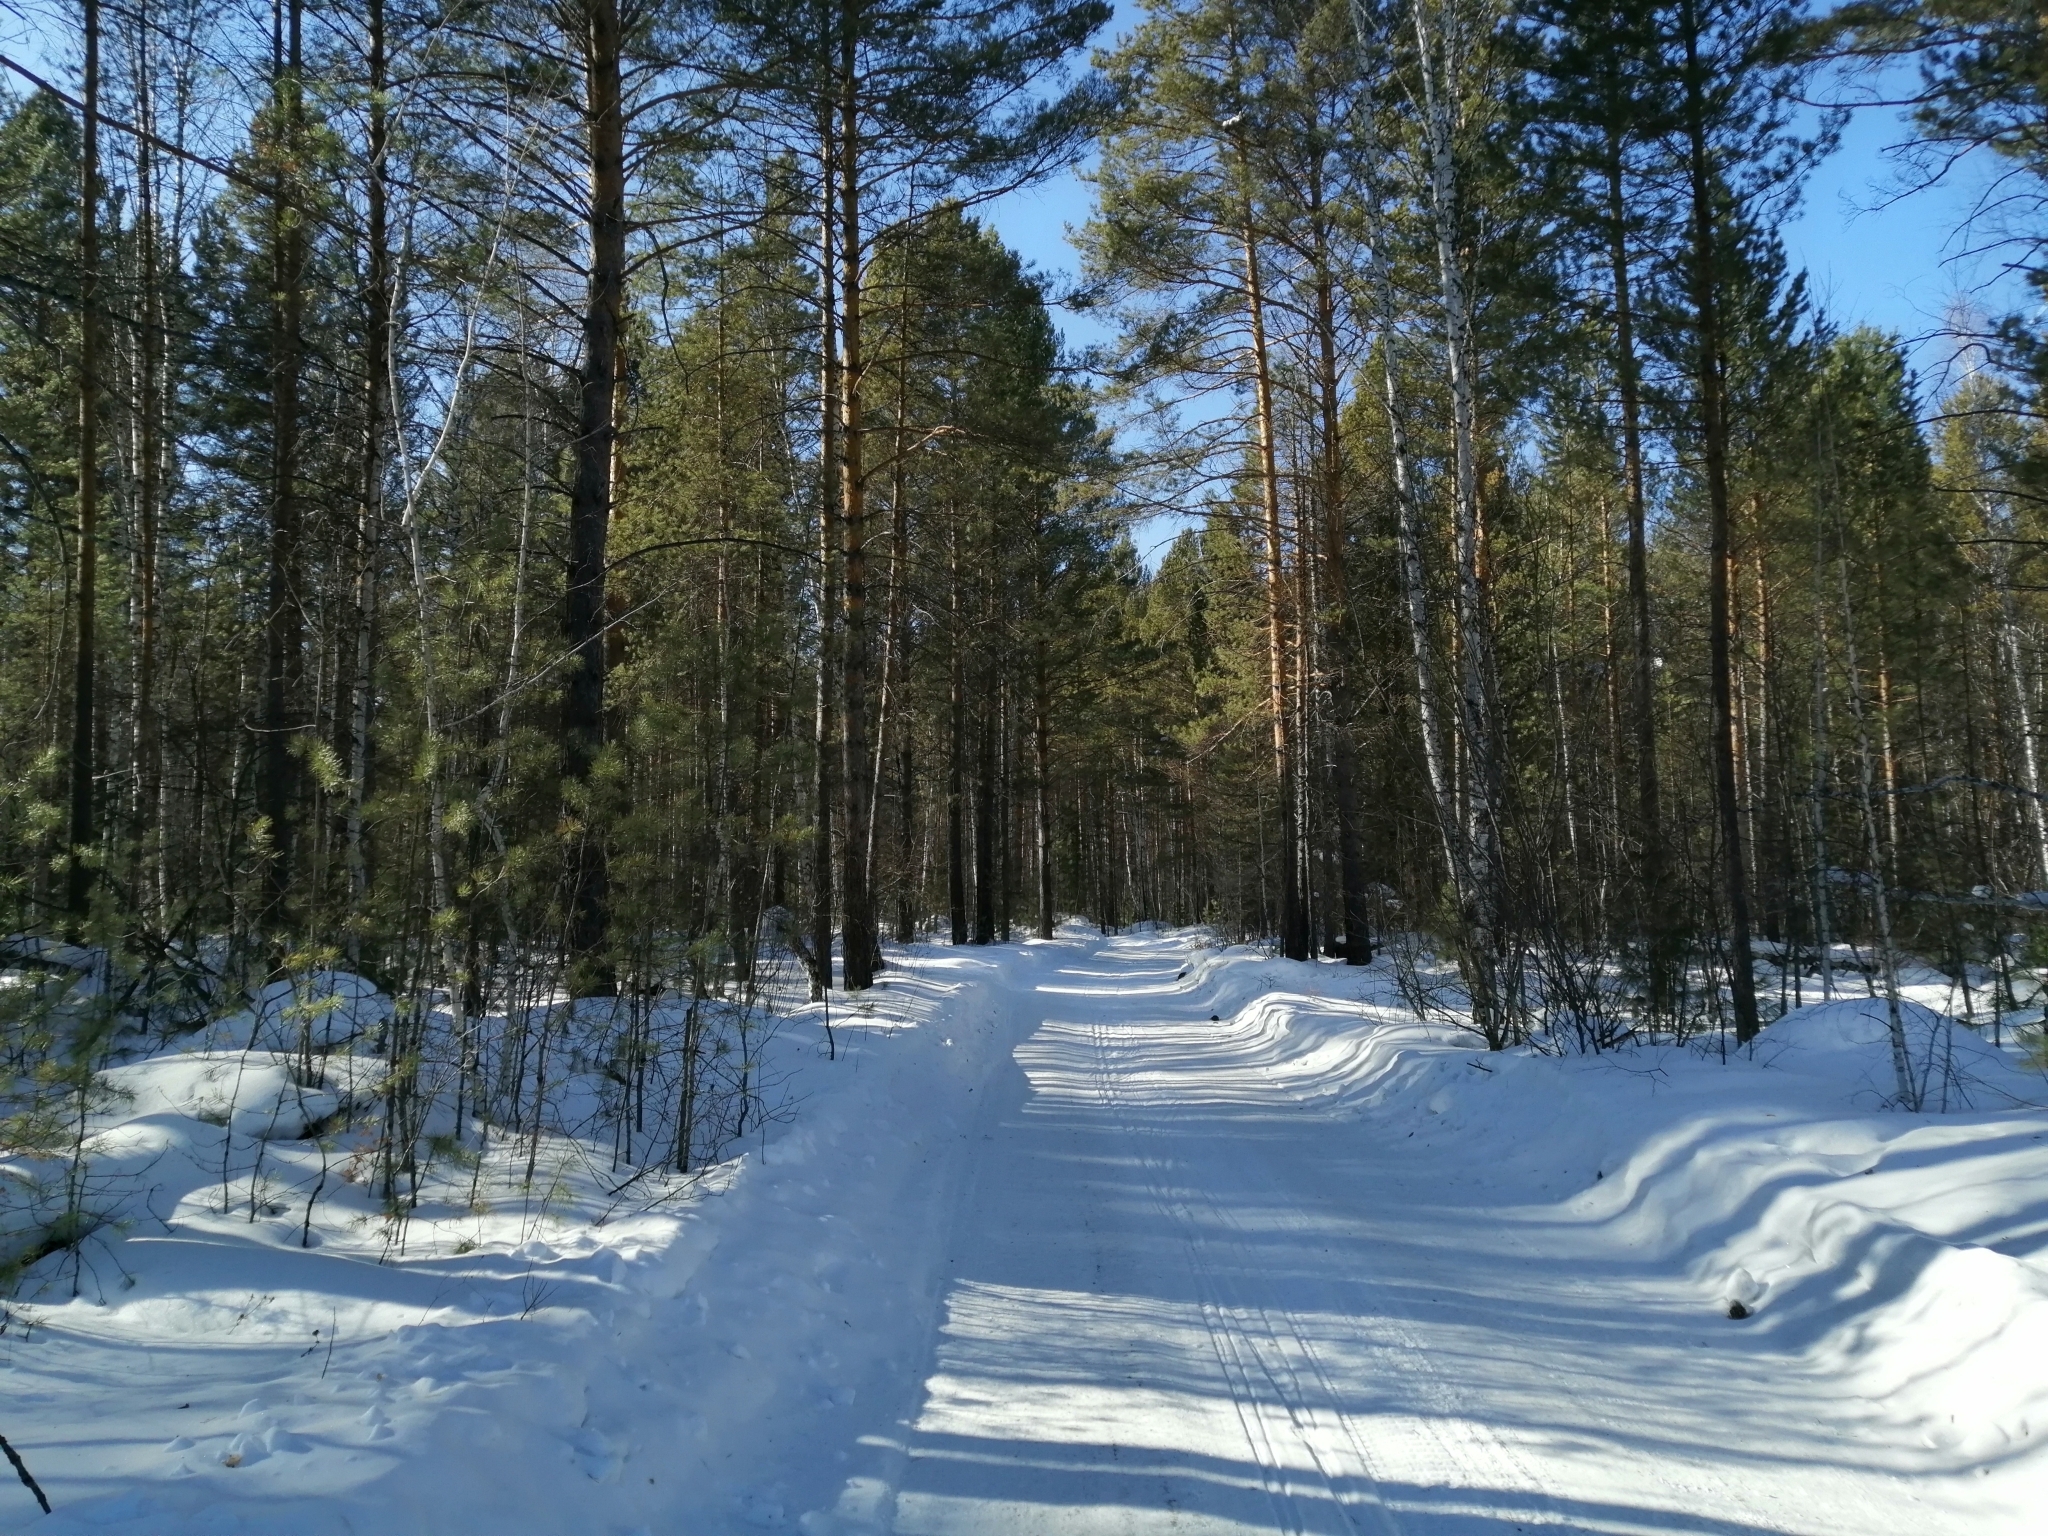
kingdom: Plantae
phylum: Tracheophyta
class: Pinopsida
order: Pinales
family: Pinaceae
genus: Pinus
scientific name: Pinus sylvestris
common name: Scots pine
